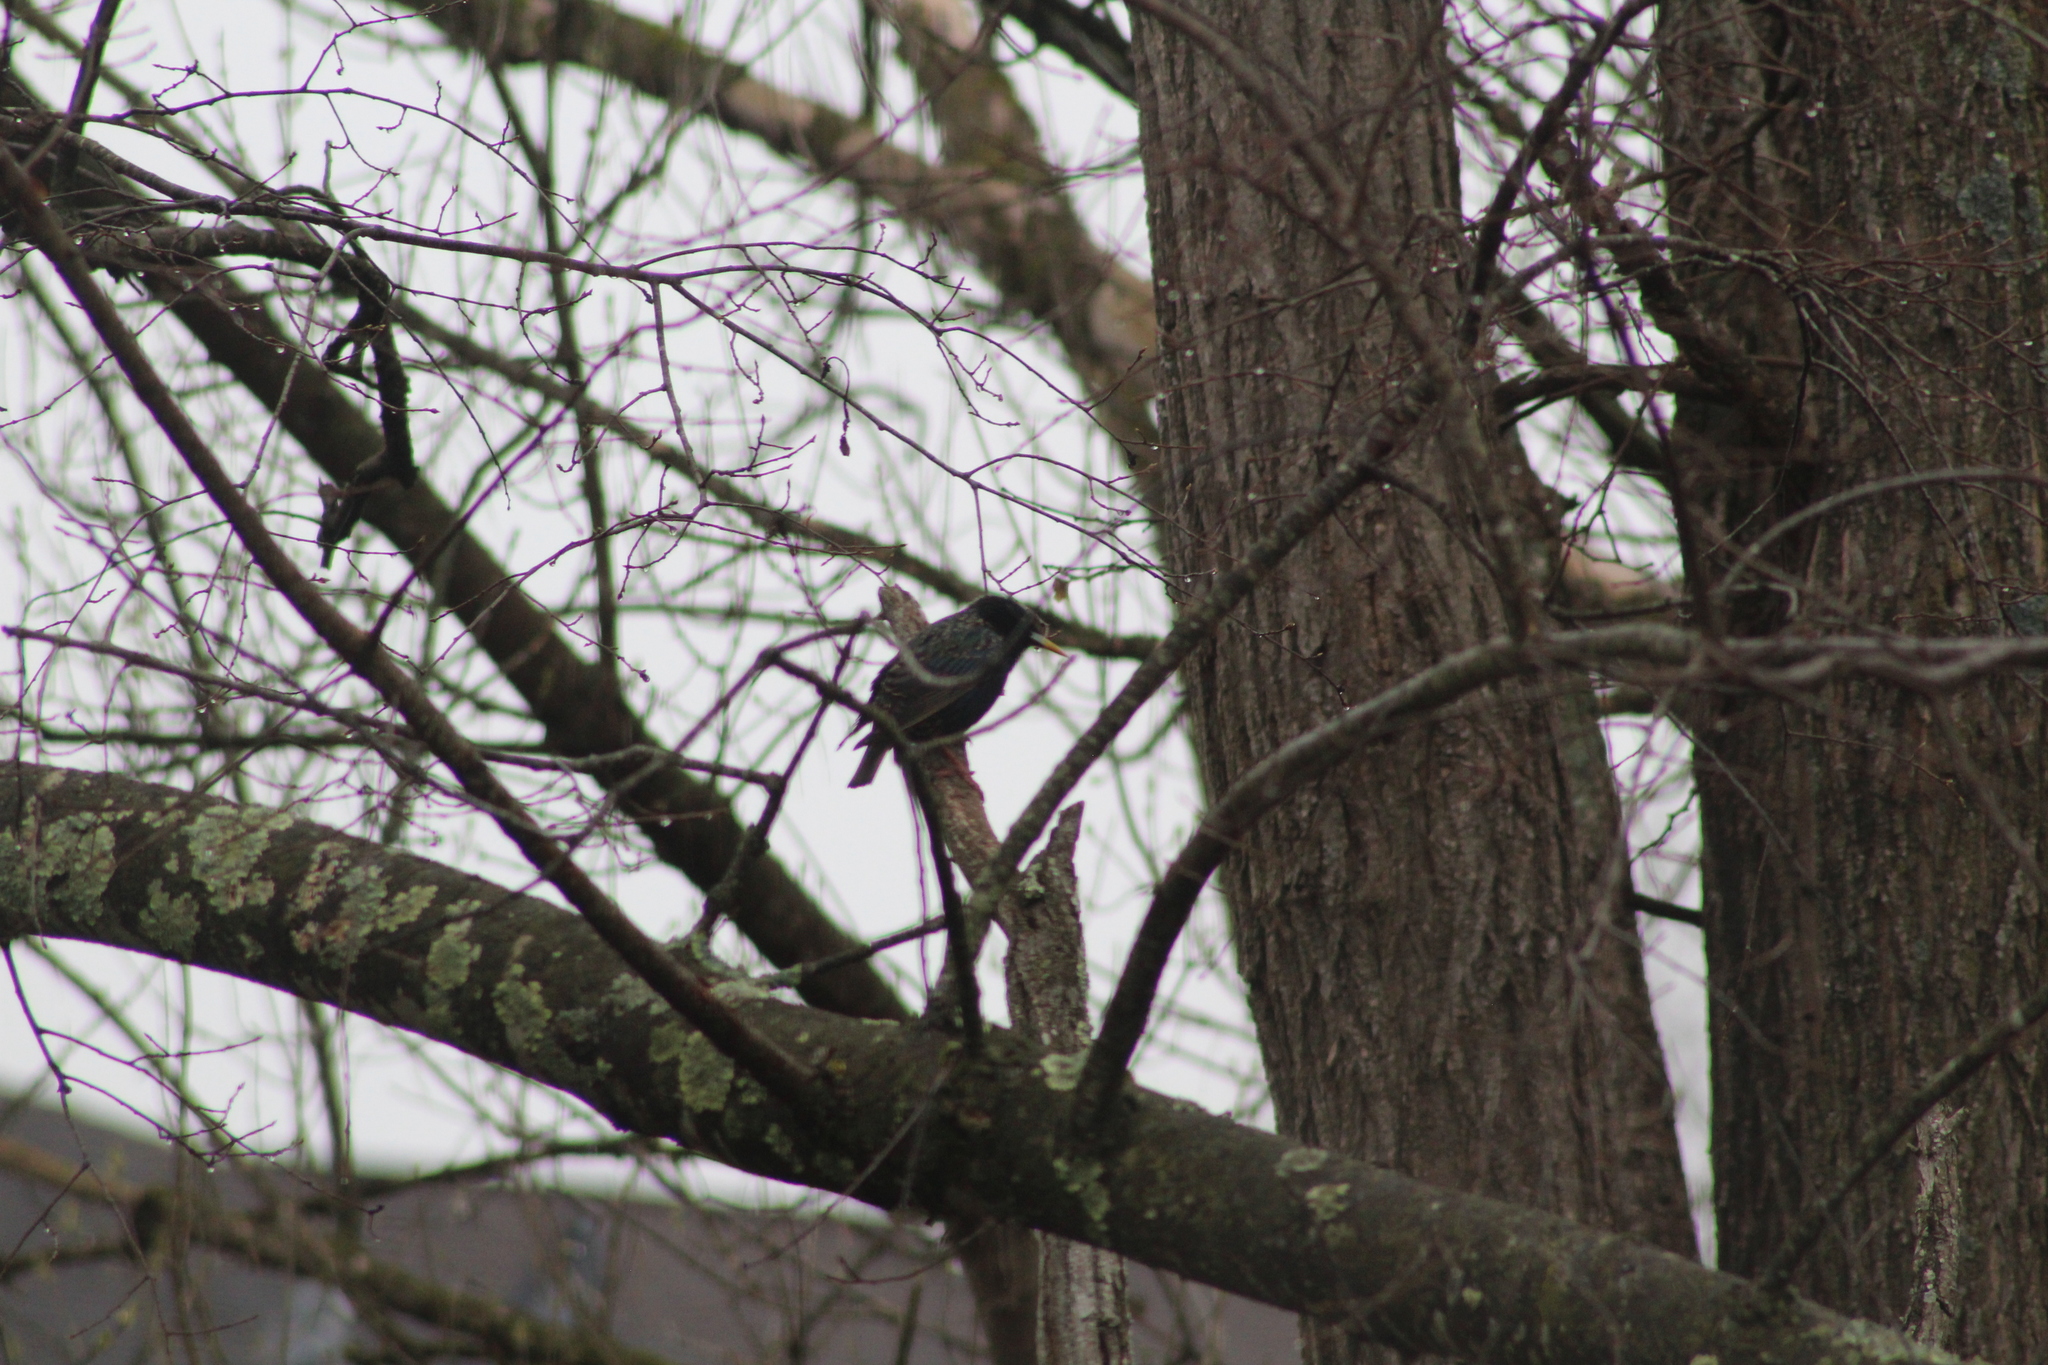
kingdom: Animalia
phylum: Chordata
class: Aves
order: Passeriformes
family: Sturnidae
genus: Sturnus
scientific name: Sturnus vulgaris
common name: Common starling
